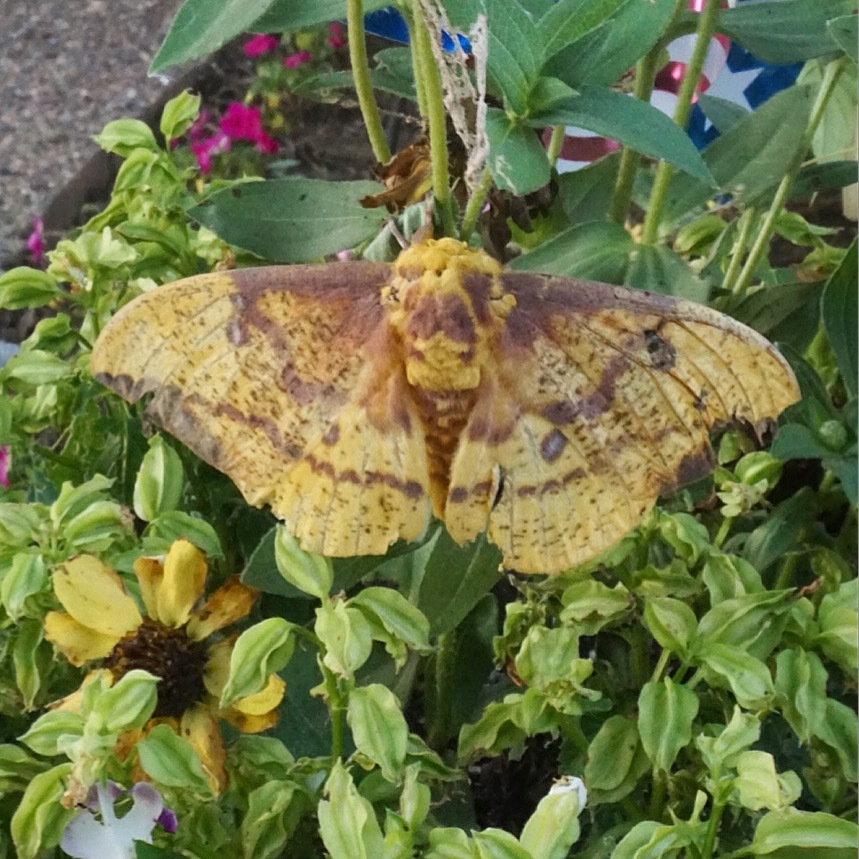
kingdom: Animalia
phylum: Arthropoda
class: Insecta
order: Lepidoptera
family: Saturniidae
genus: Eacles
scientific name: Eacles imperialis
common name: Imperial moth
